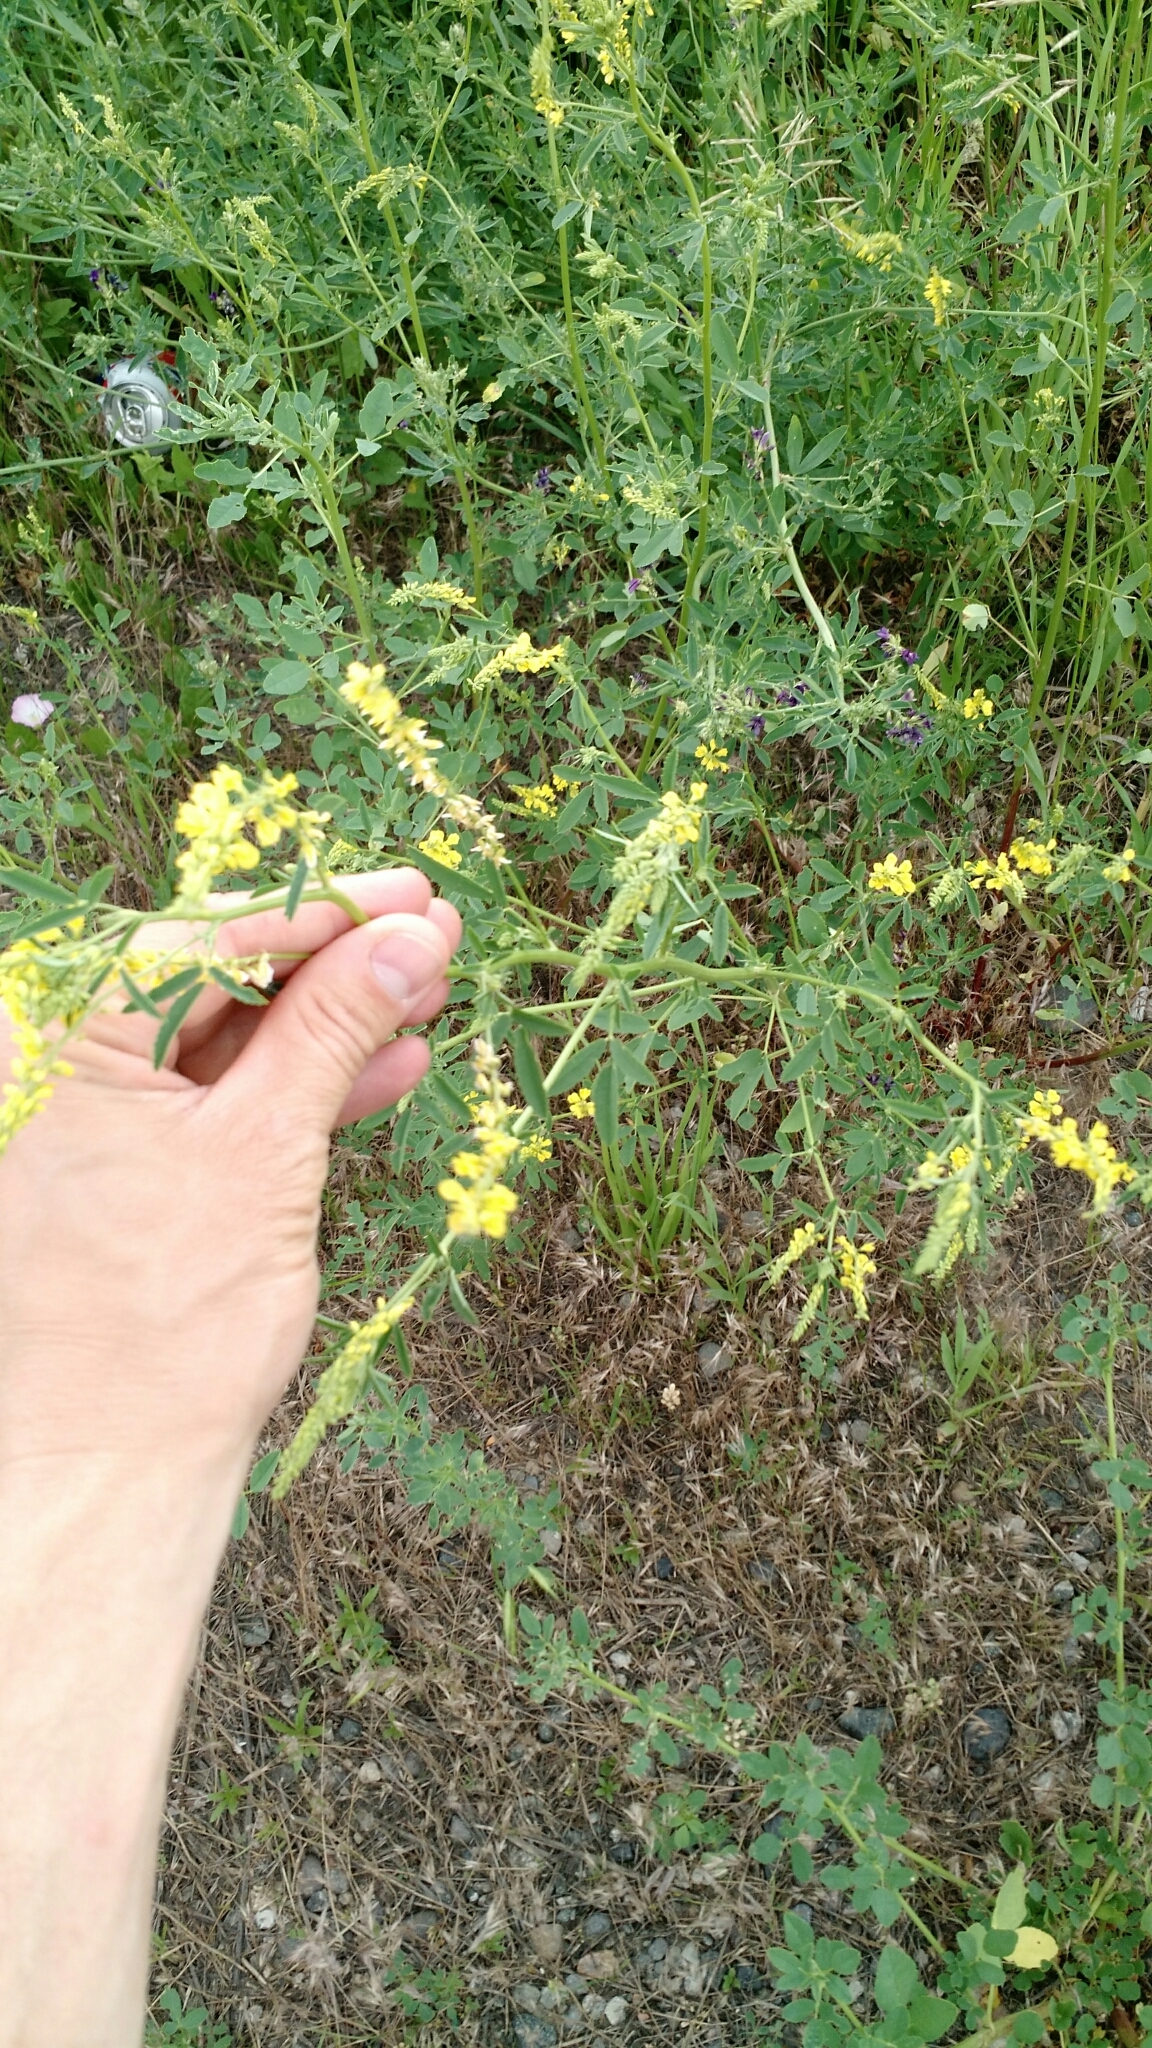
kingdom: Plantae
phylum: Tracheophyta
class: Magnoliopsida
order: Fabales
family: Fabaceae
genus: Melilotus
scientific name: Melilotus officinalis
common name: Sweetclover
